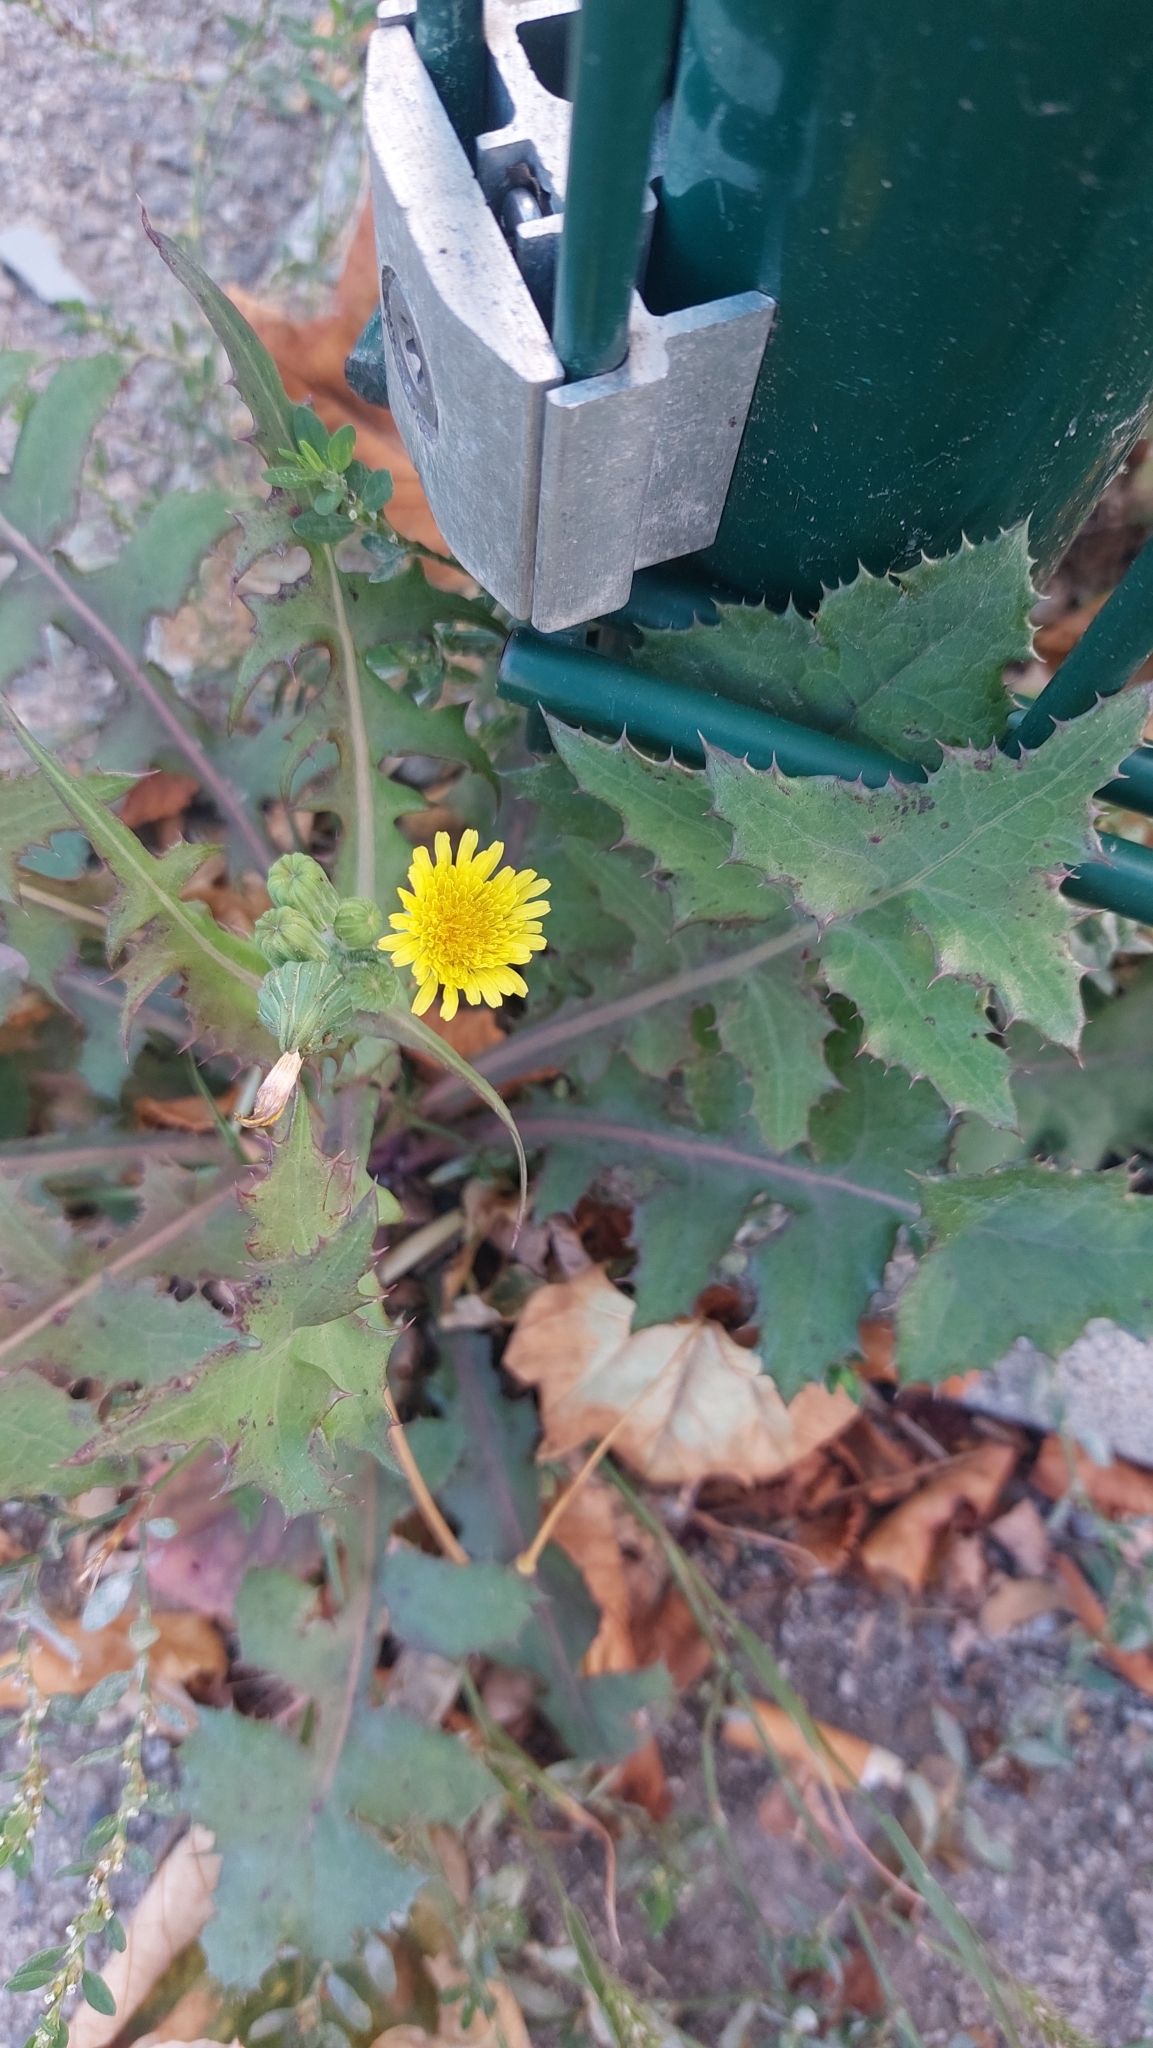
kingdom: Plantae
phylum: Tracheophyta
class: Magnoliopsida
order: Asterales
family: Asteraceae
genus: Sonchus
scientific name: Sonchus oleraceus
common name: Common sowthistle
